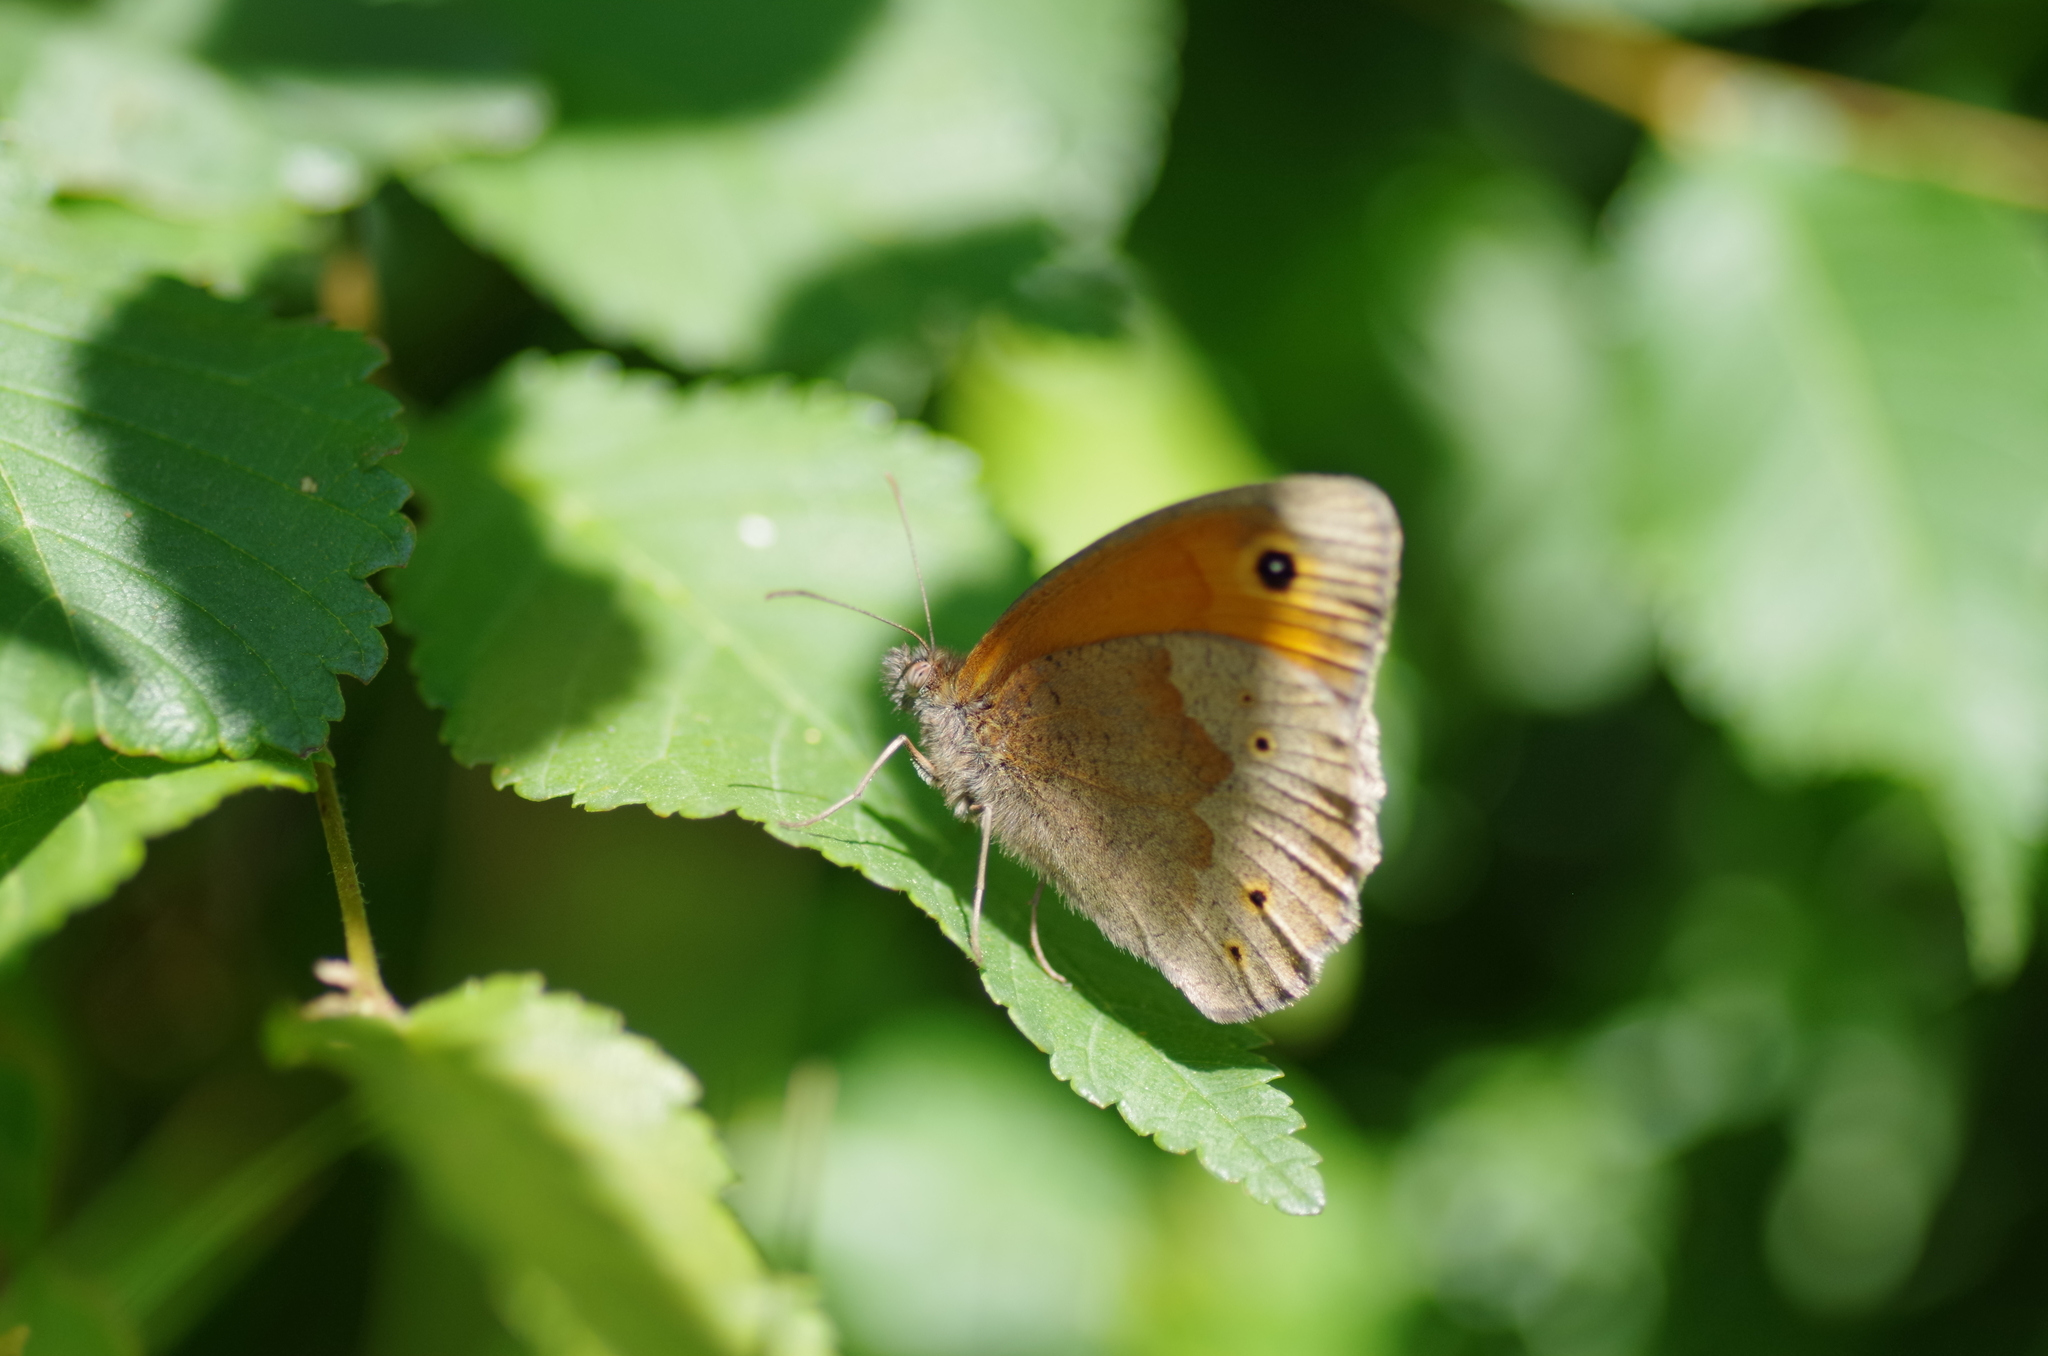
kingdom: Animalia
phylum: Arthropoda
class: Insecta
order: Lepidoptera
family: Nymphalidae
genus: Maniola
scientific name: Maniola jurtina
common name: Meadow brown
